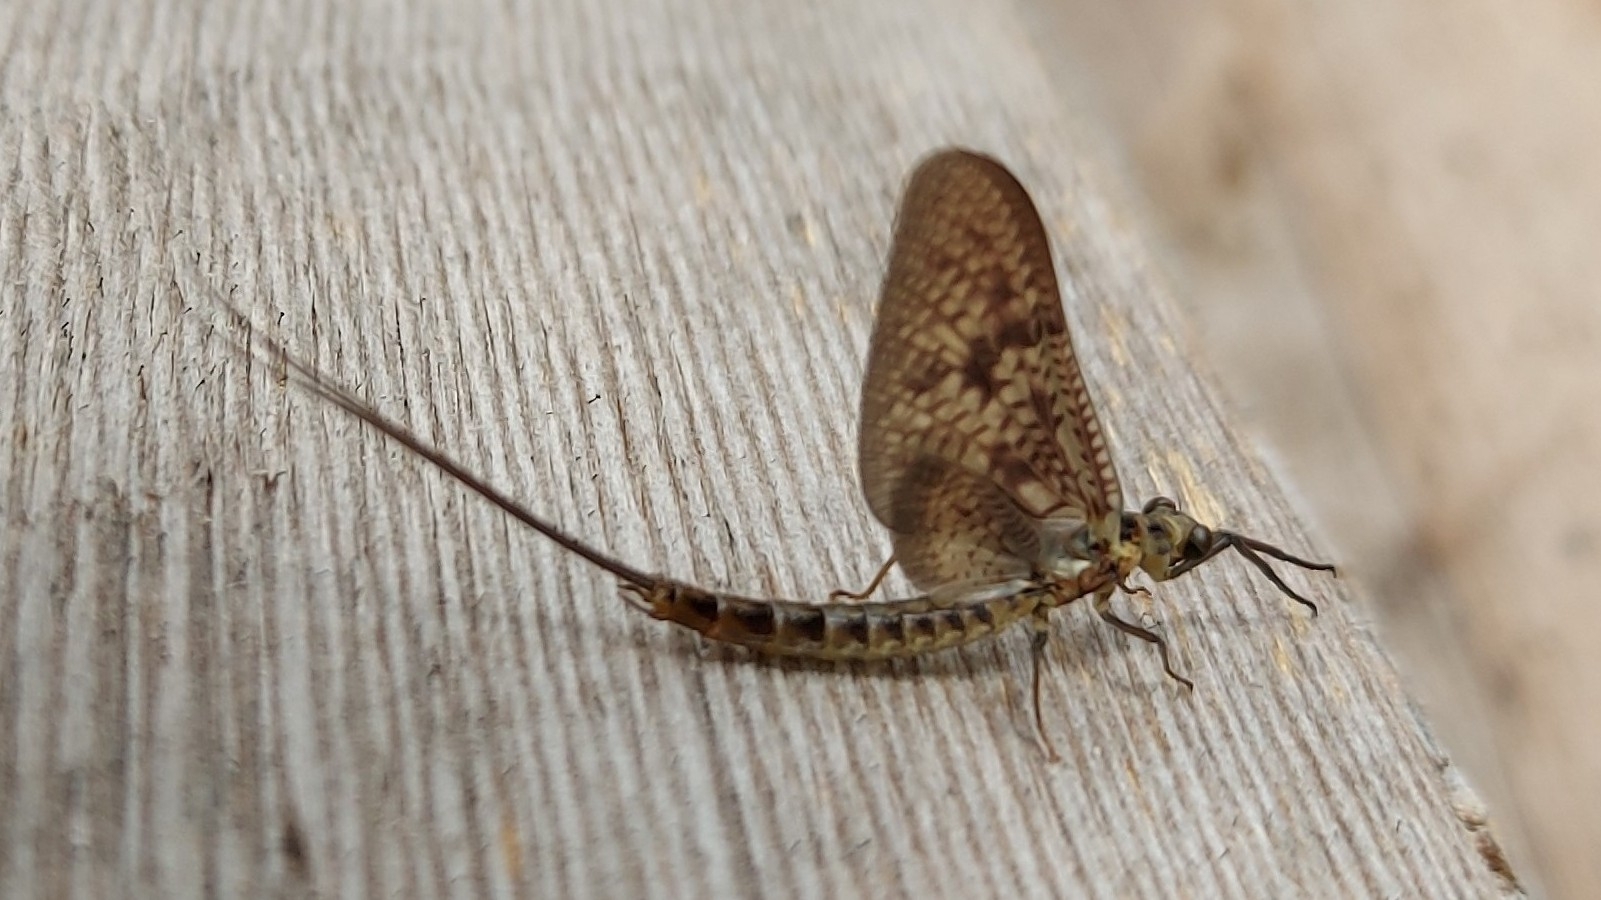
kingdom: Animalia
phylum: Arthropoda
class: Insecta
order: Ephemeroptera
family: Ephemeridae
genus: Ephemera
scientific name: Ephemera vulgata
